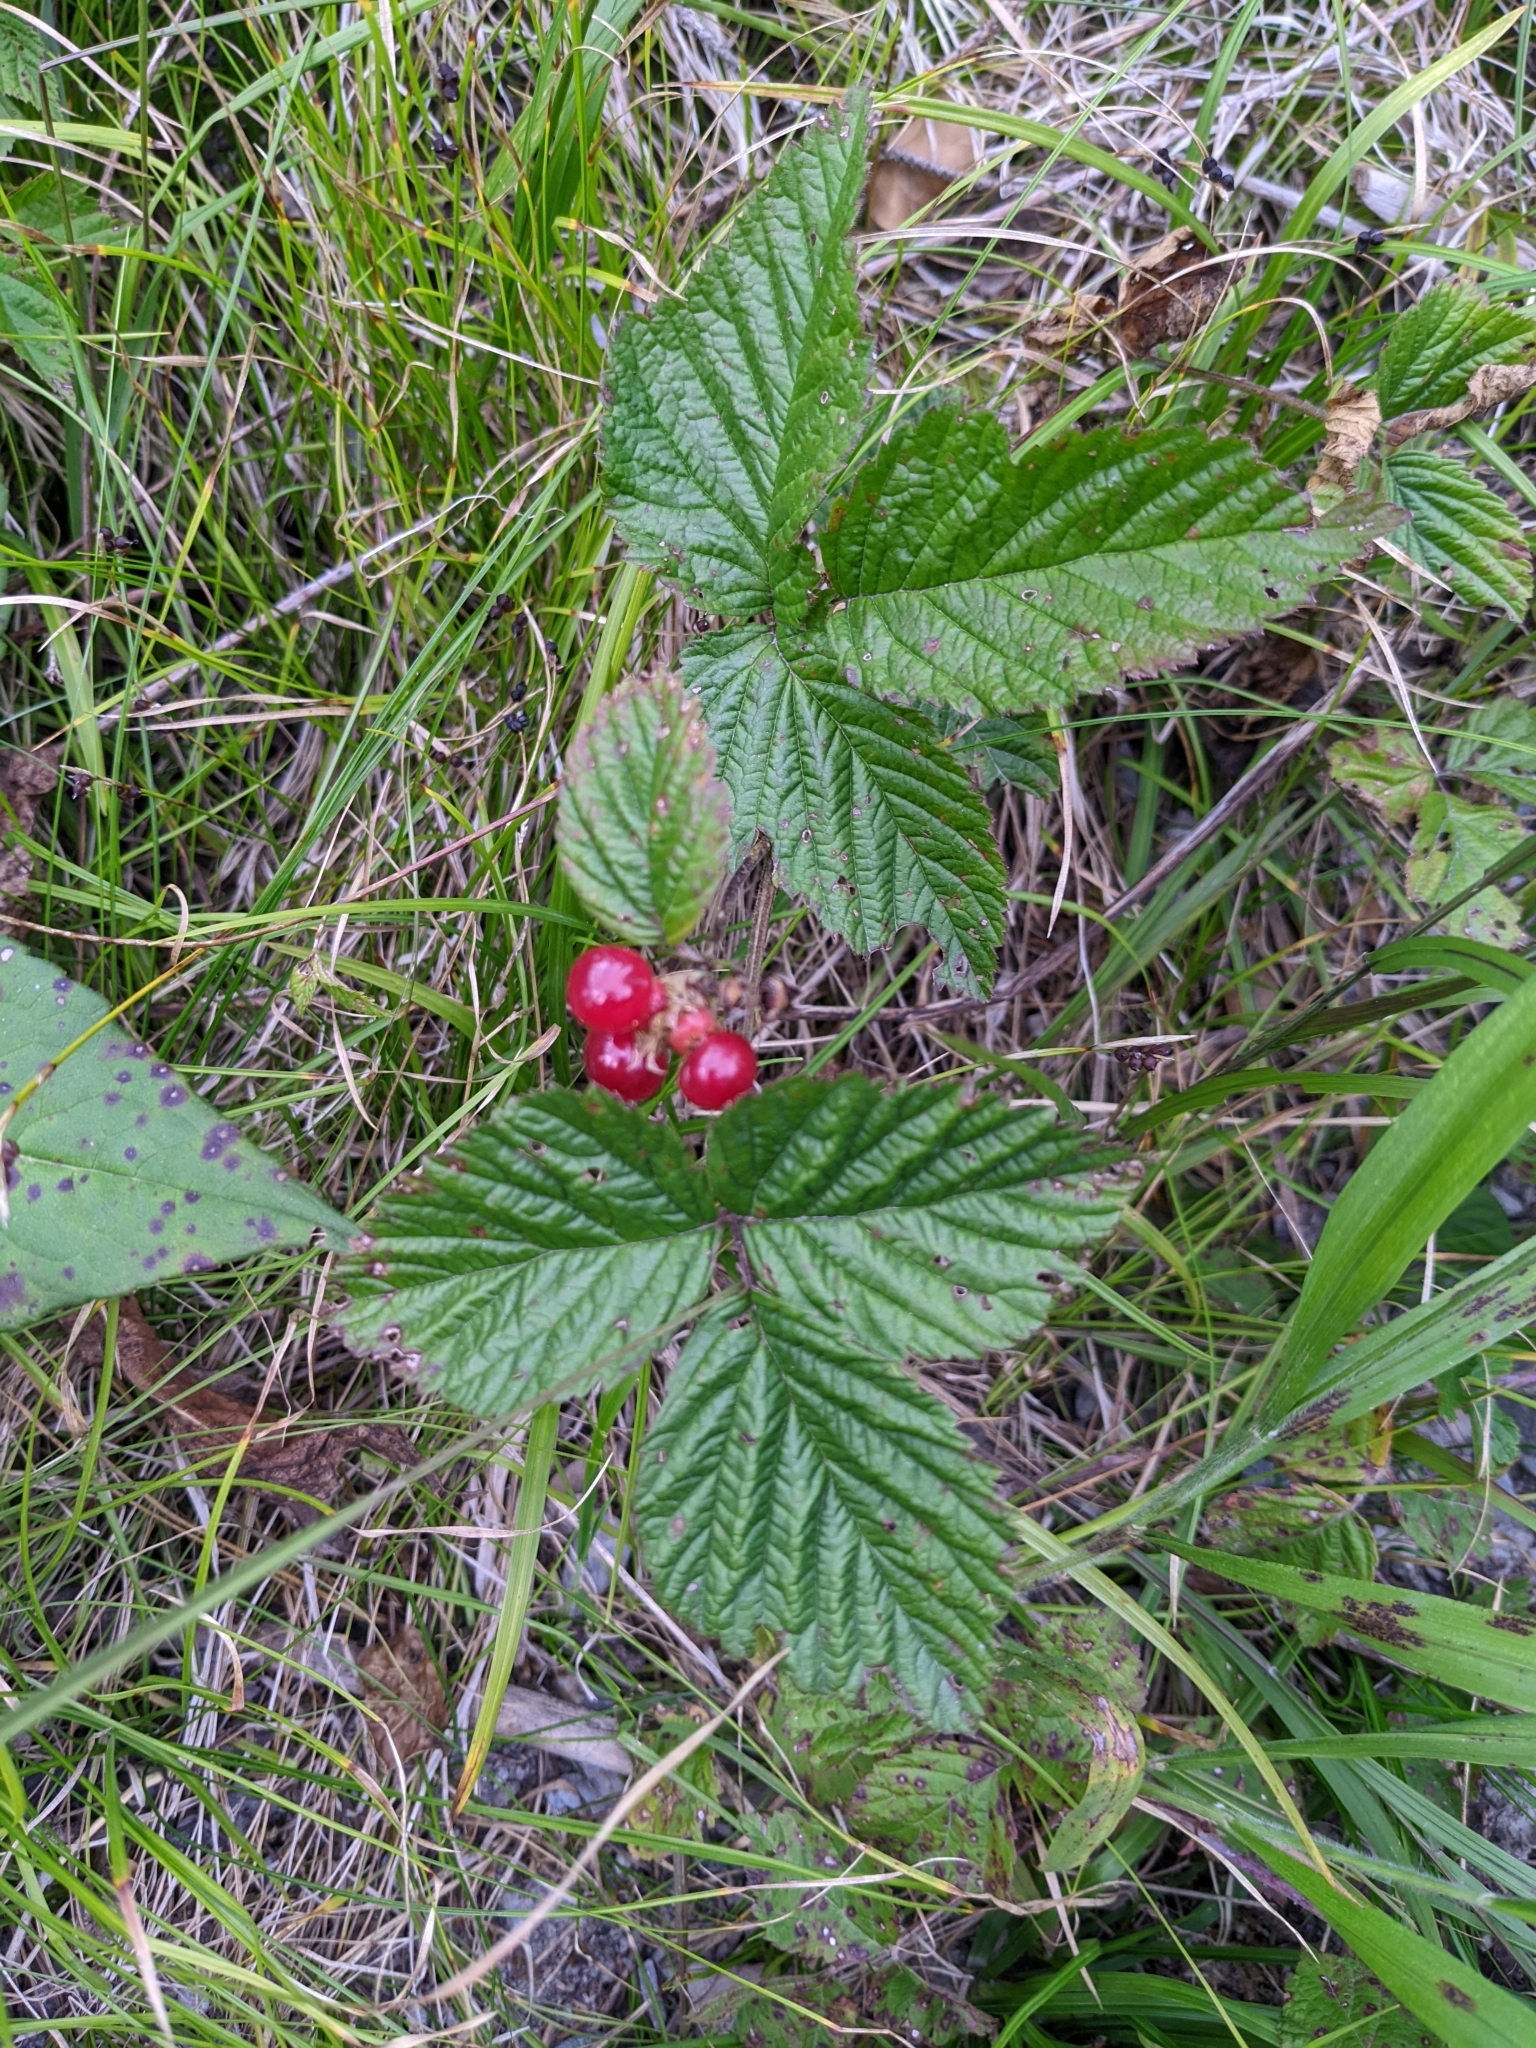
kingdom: Plantae
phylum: Tracheophyta
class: Magnoliopsida
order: Rosales
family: Rosaceae
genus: Rubus
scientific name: Rubus saxatilis
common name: Stone bramble
